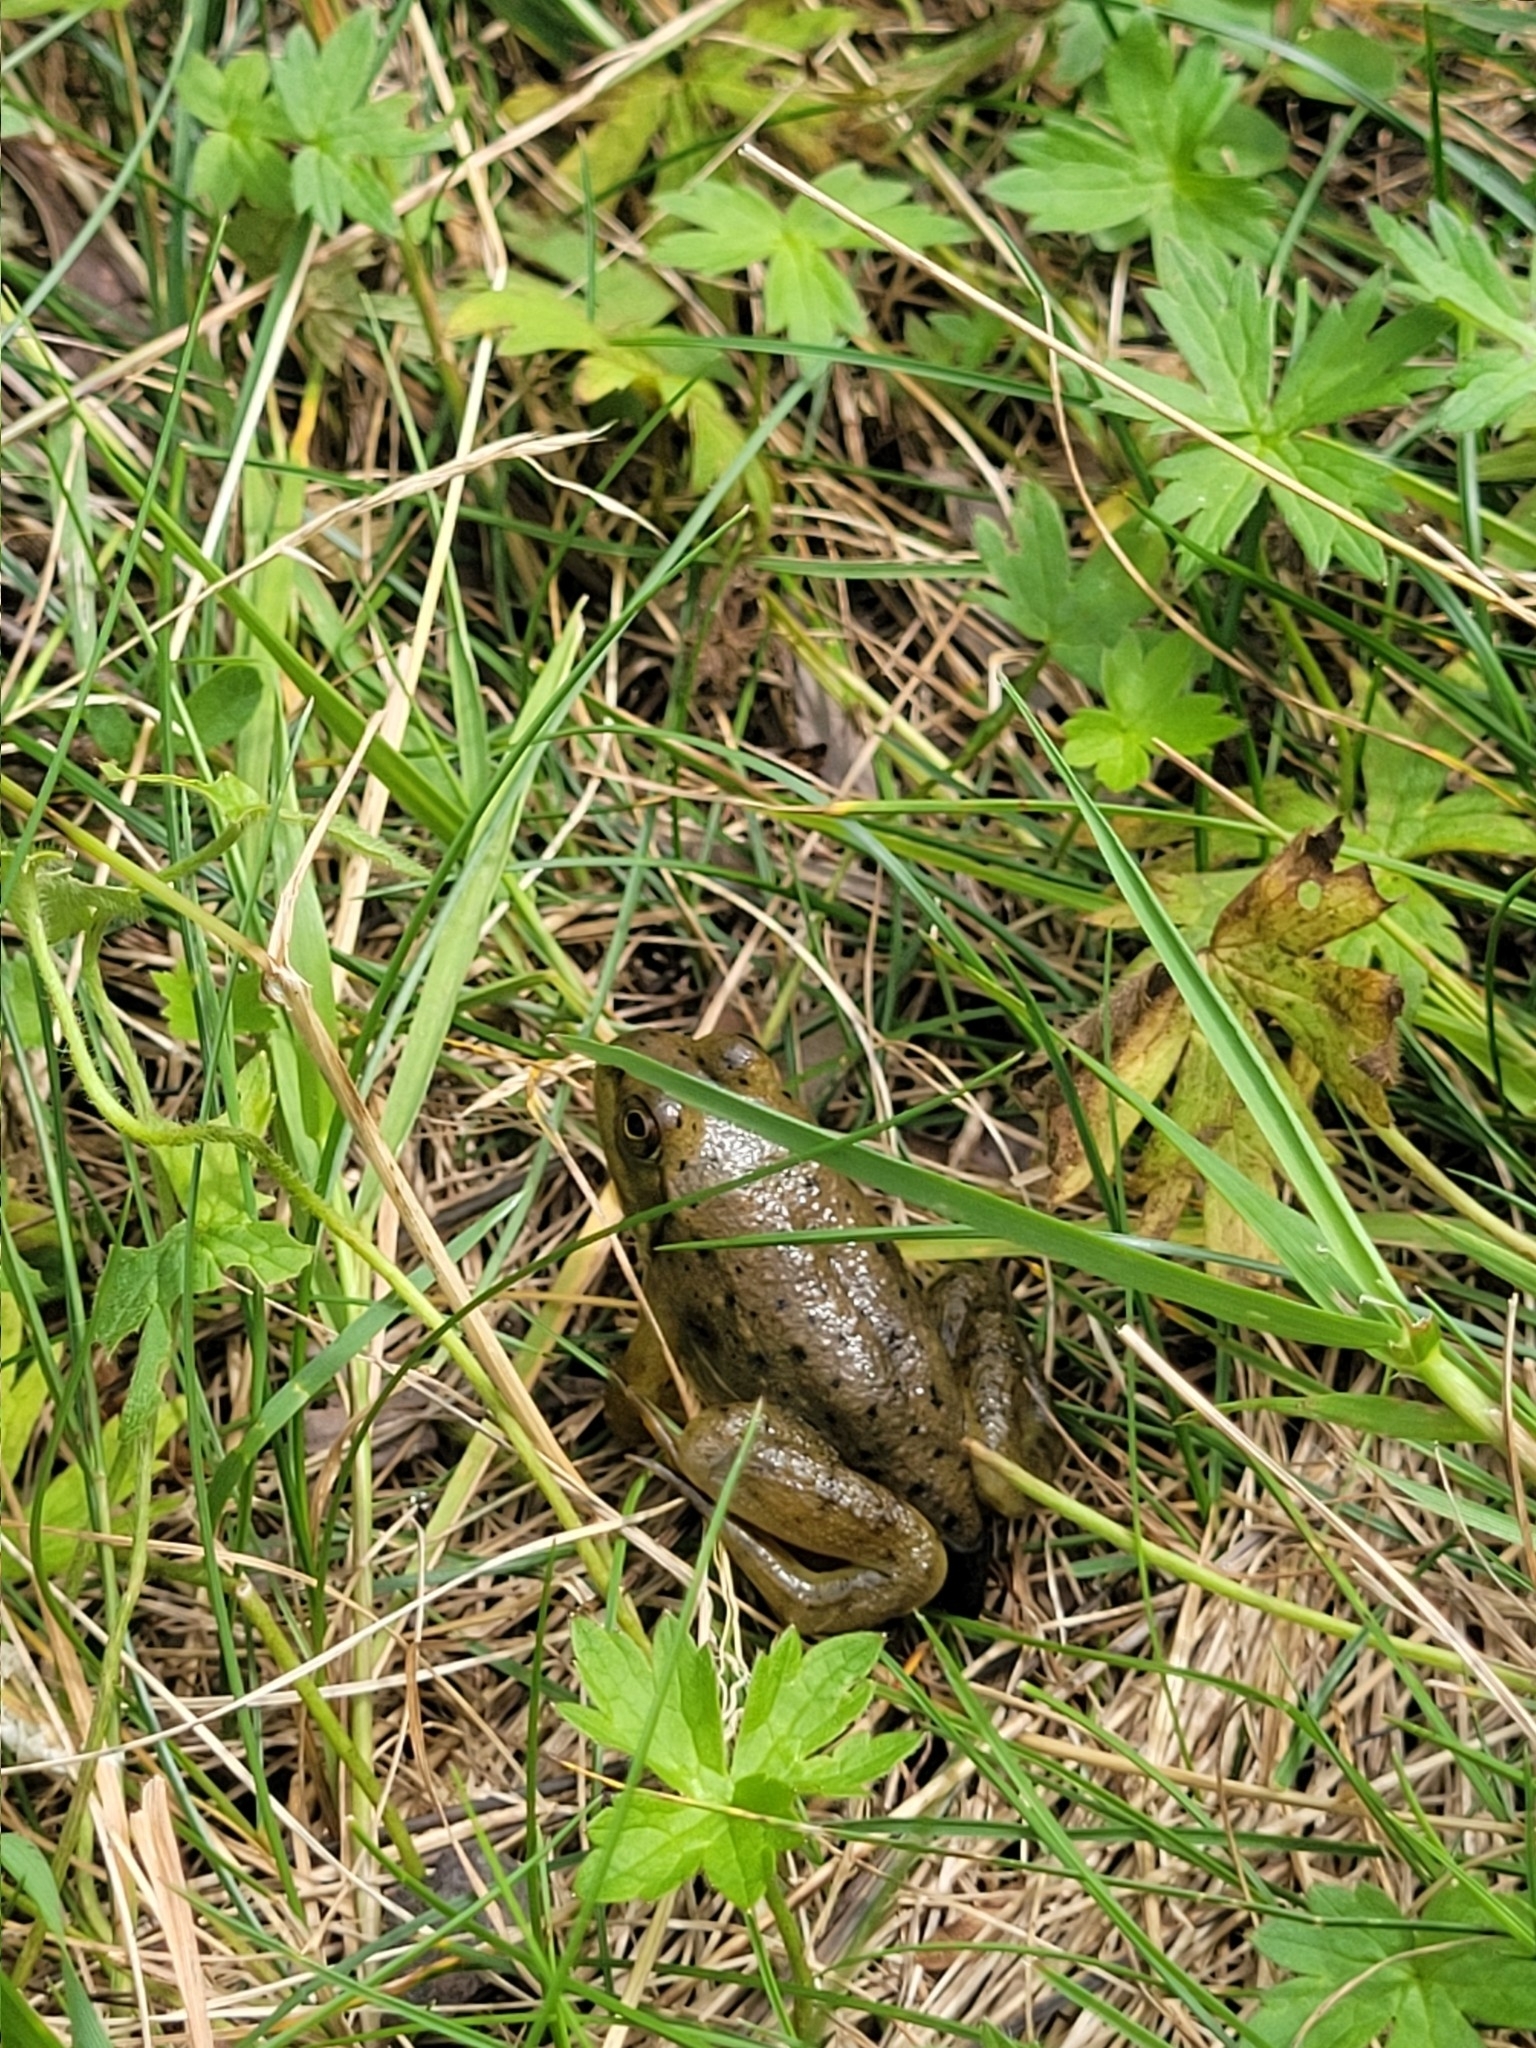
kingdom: Animalia
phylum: Chordata
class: Amphibia
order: Anura
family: Ranidae
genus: Lithobates
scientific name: Lithobates catesbeianus
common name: American bullfrog
